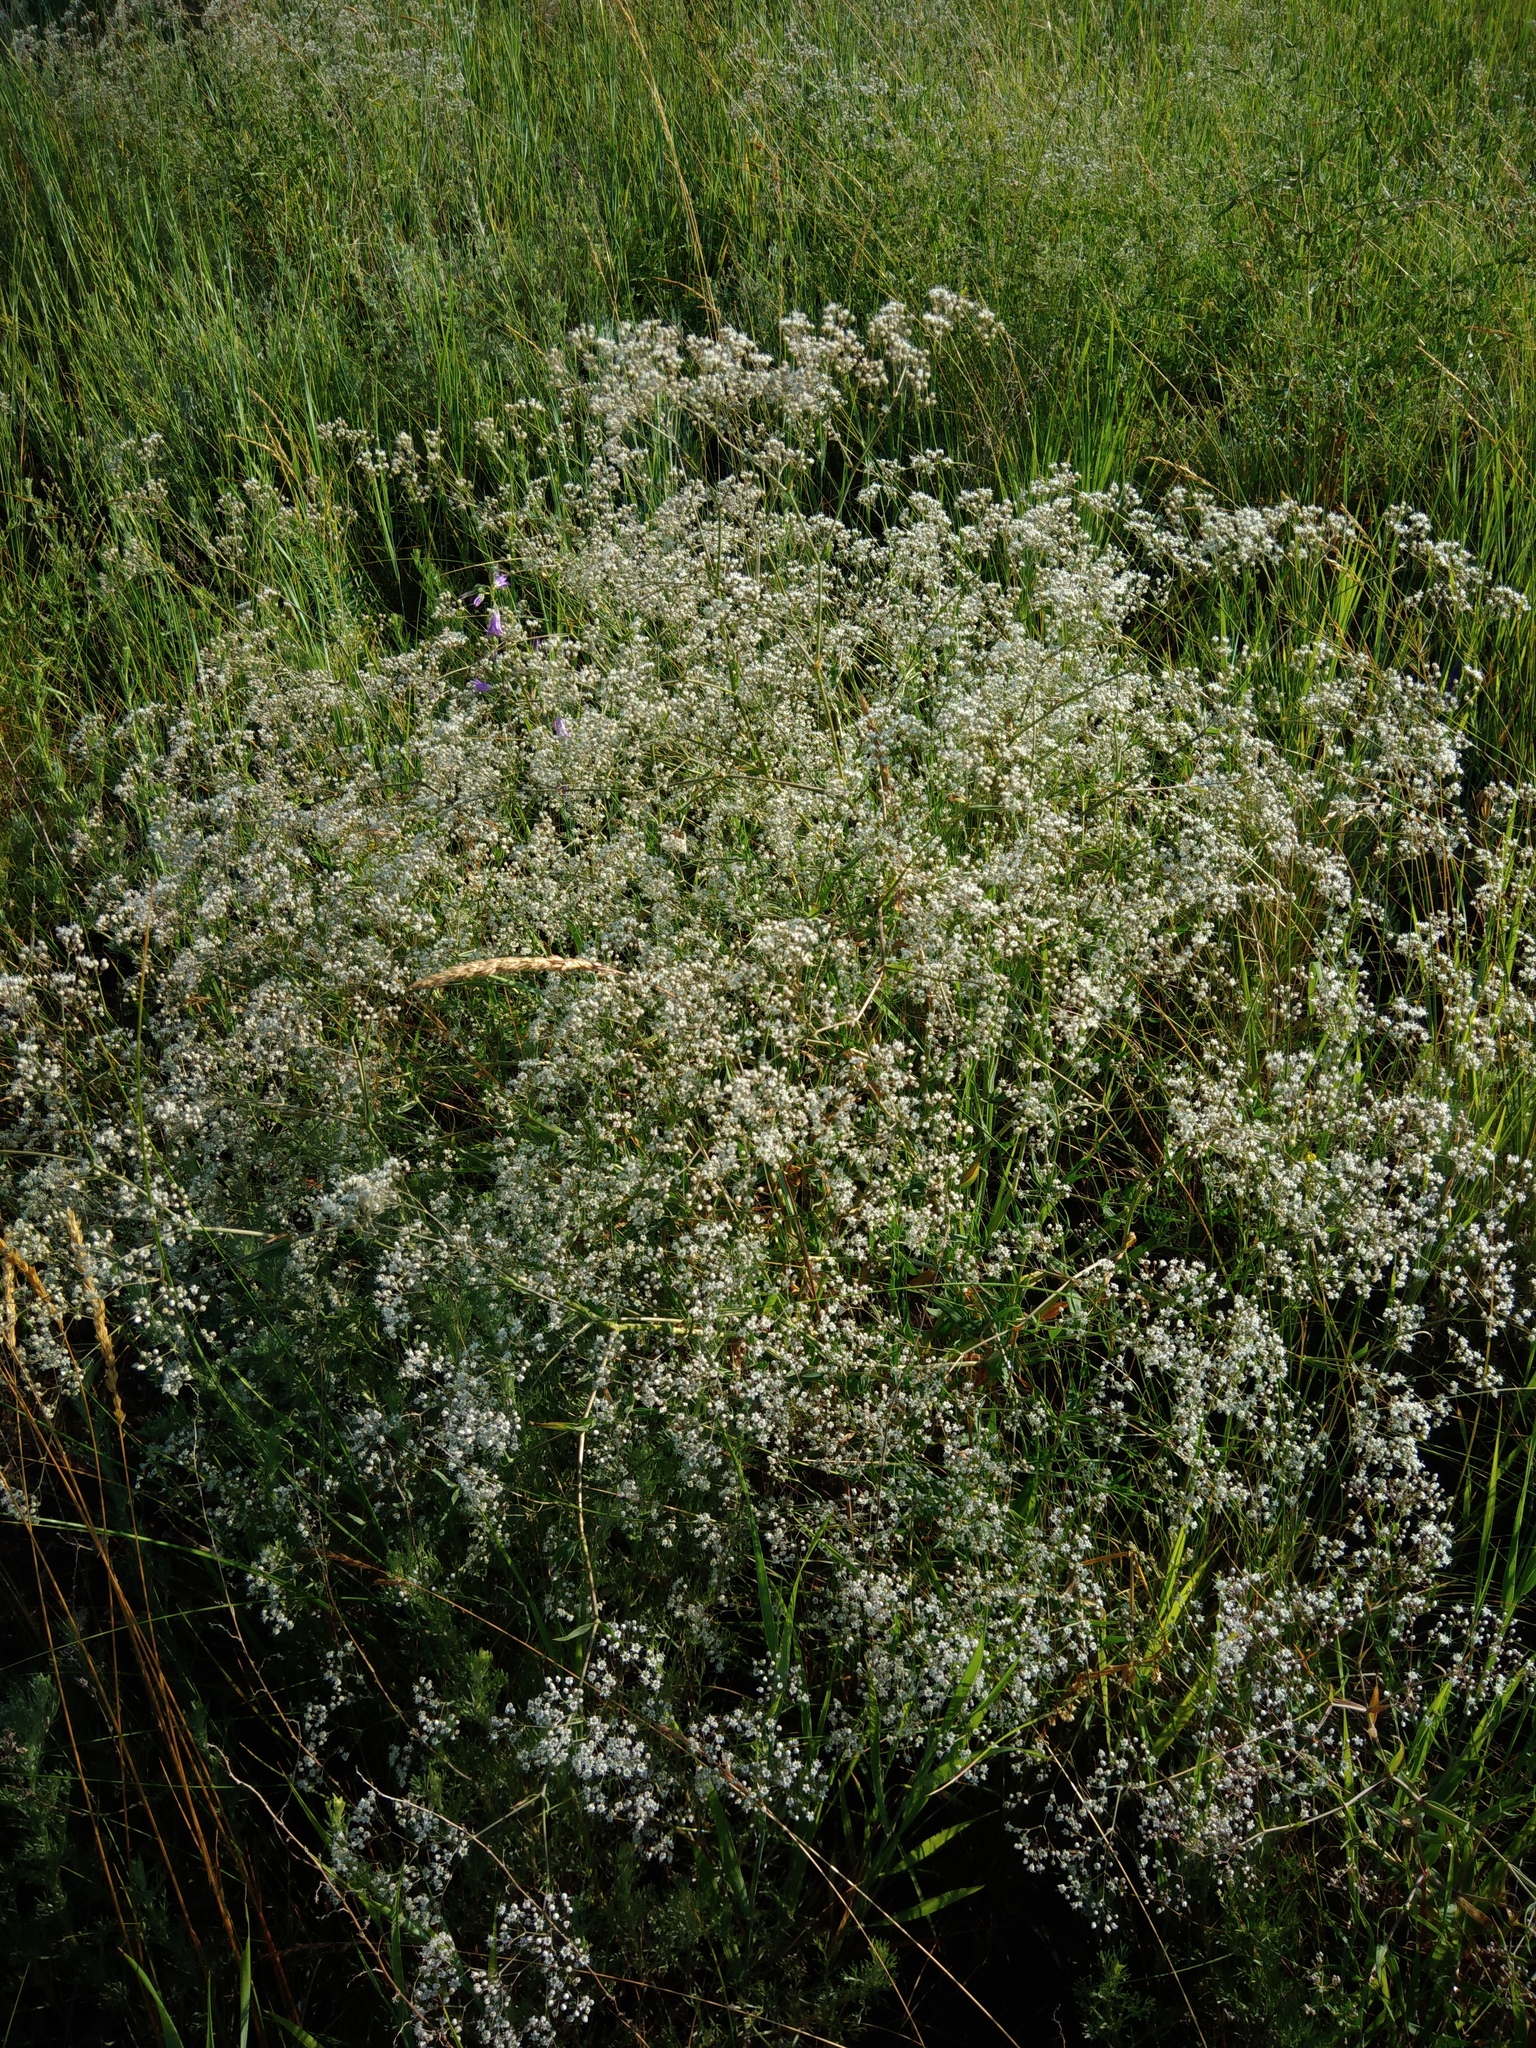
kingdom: Plantae
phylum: Tracheophyta
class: Magnoliopsida
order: Caryophyllales
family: Caryophyllaceae
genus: Gypsophila
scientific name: Gypsophila paniculata
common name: Baby's-breath
